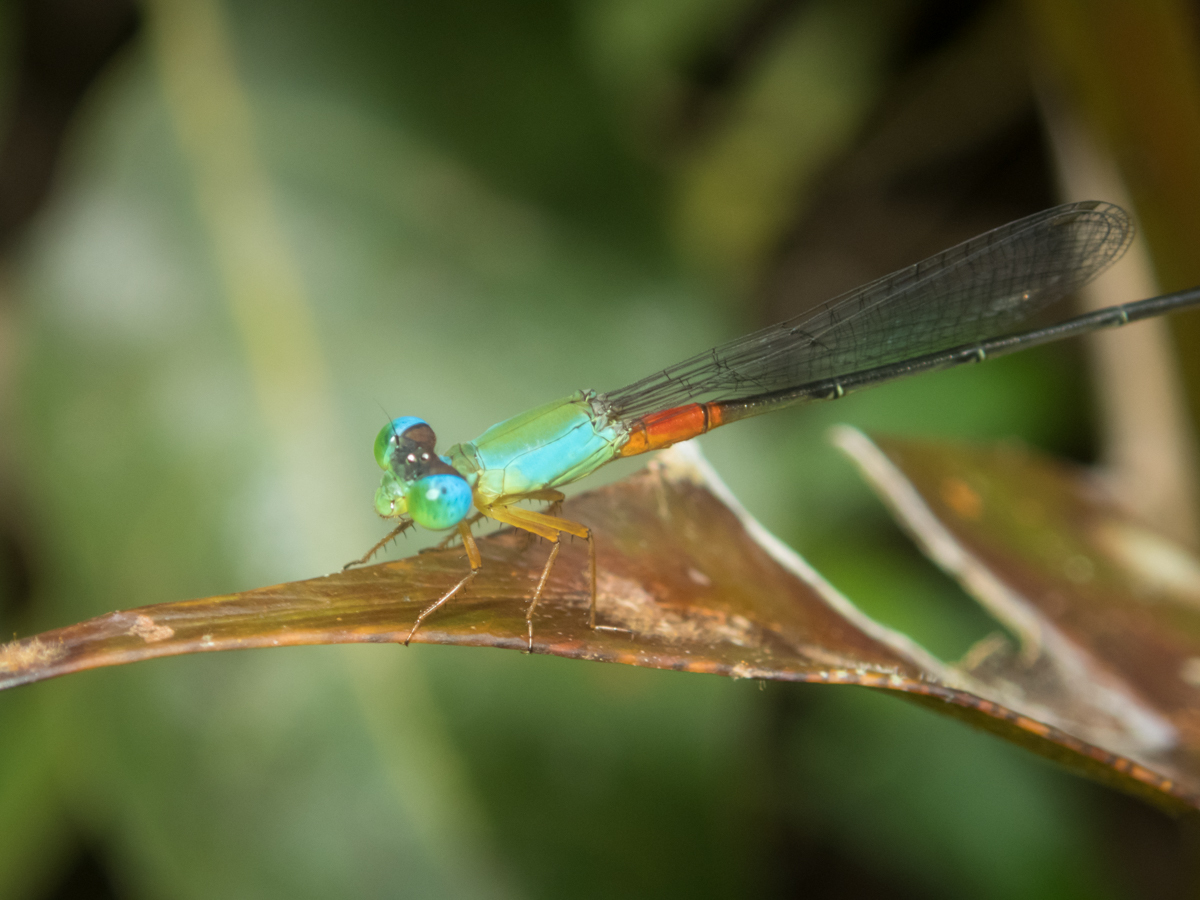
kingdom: Animalia
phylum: Arthropoda
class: Insecta
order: Odonata
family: Coenagrionidae
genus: Ceriagrion
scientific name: Ceriagrion cerinorubellum
